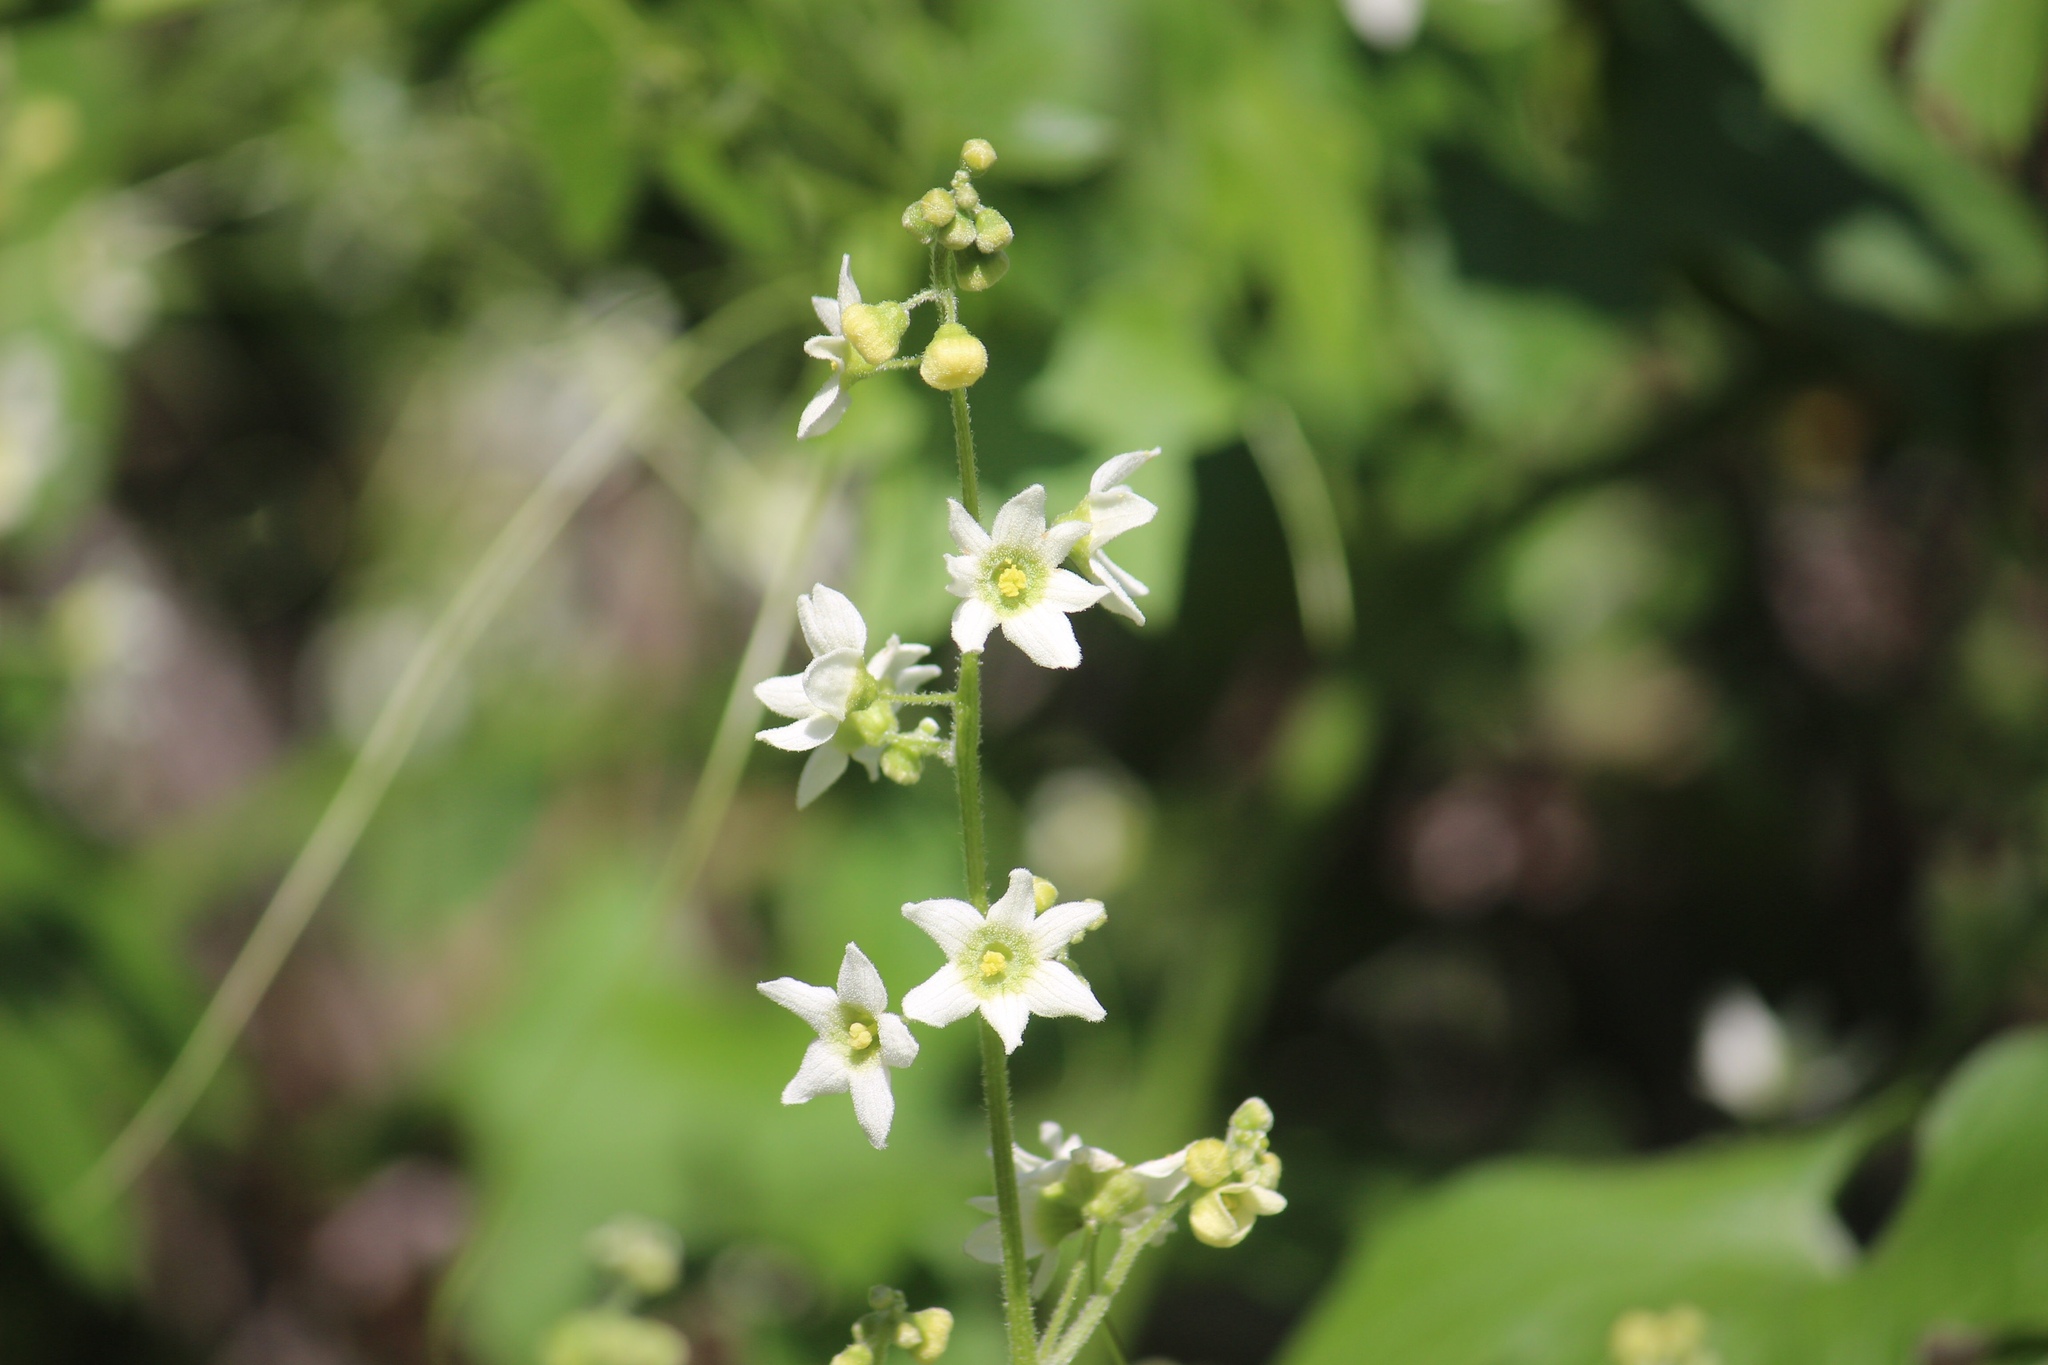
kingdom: Plantae
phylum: Tracheophyta
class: Magnoliopsida
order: Cucurbitales
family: Cucurbitaceae
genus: Marah
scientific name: Marah macrocarpa
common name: Cucamonga manroot
